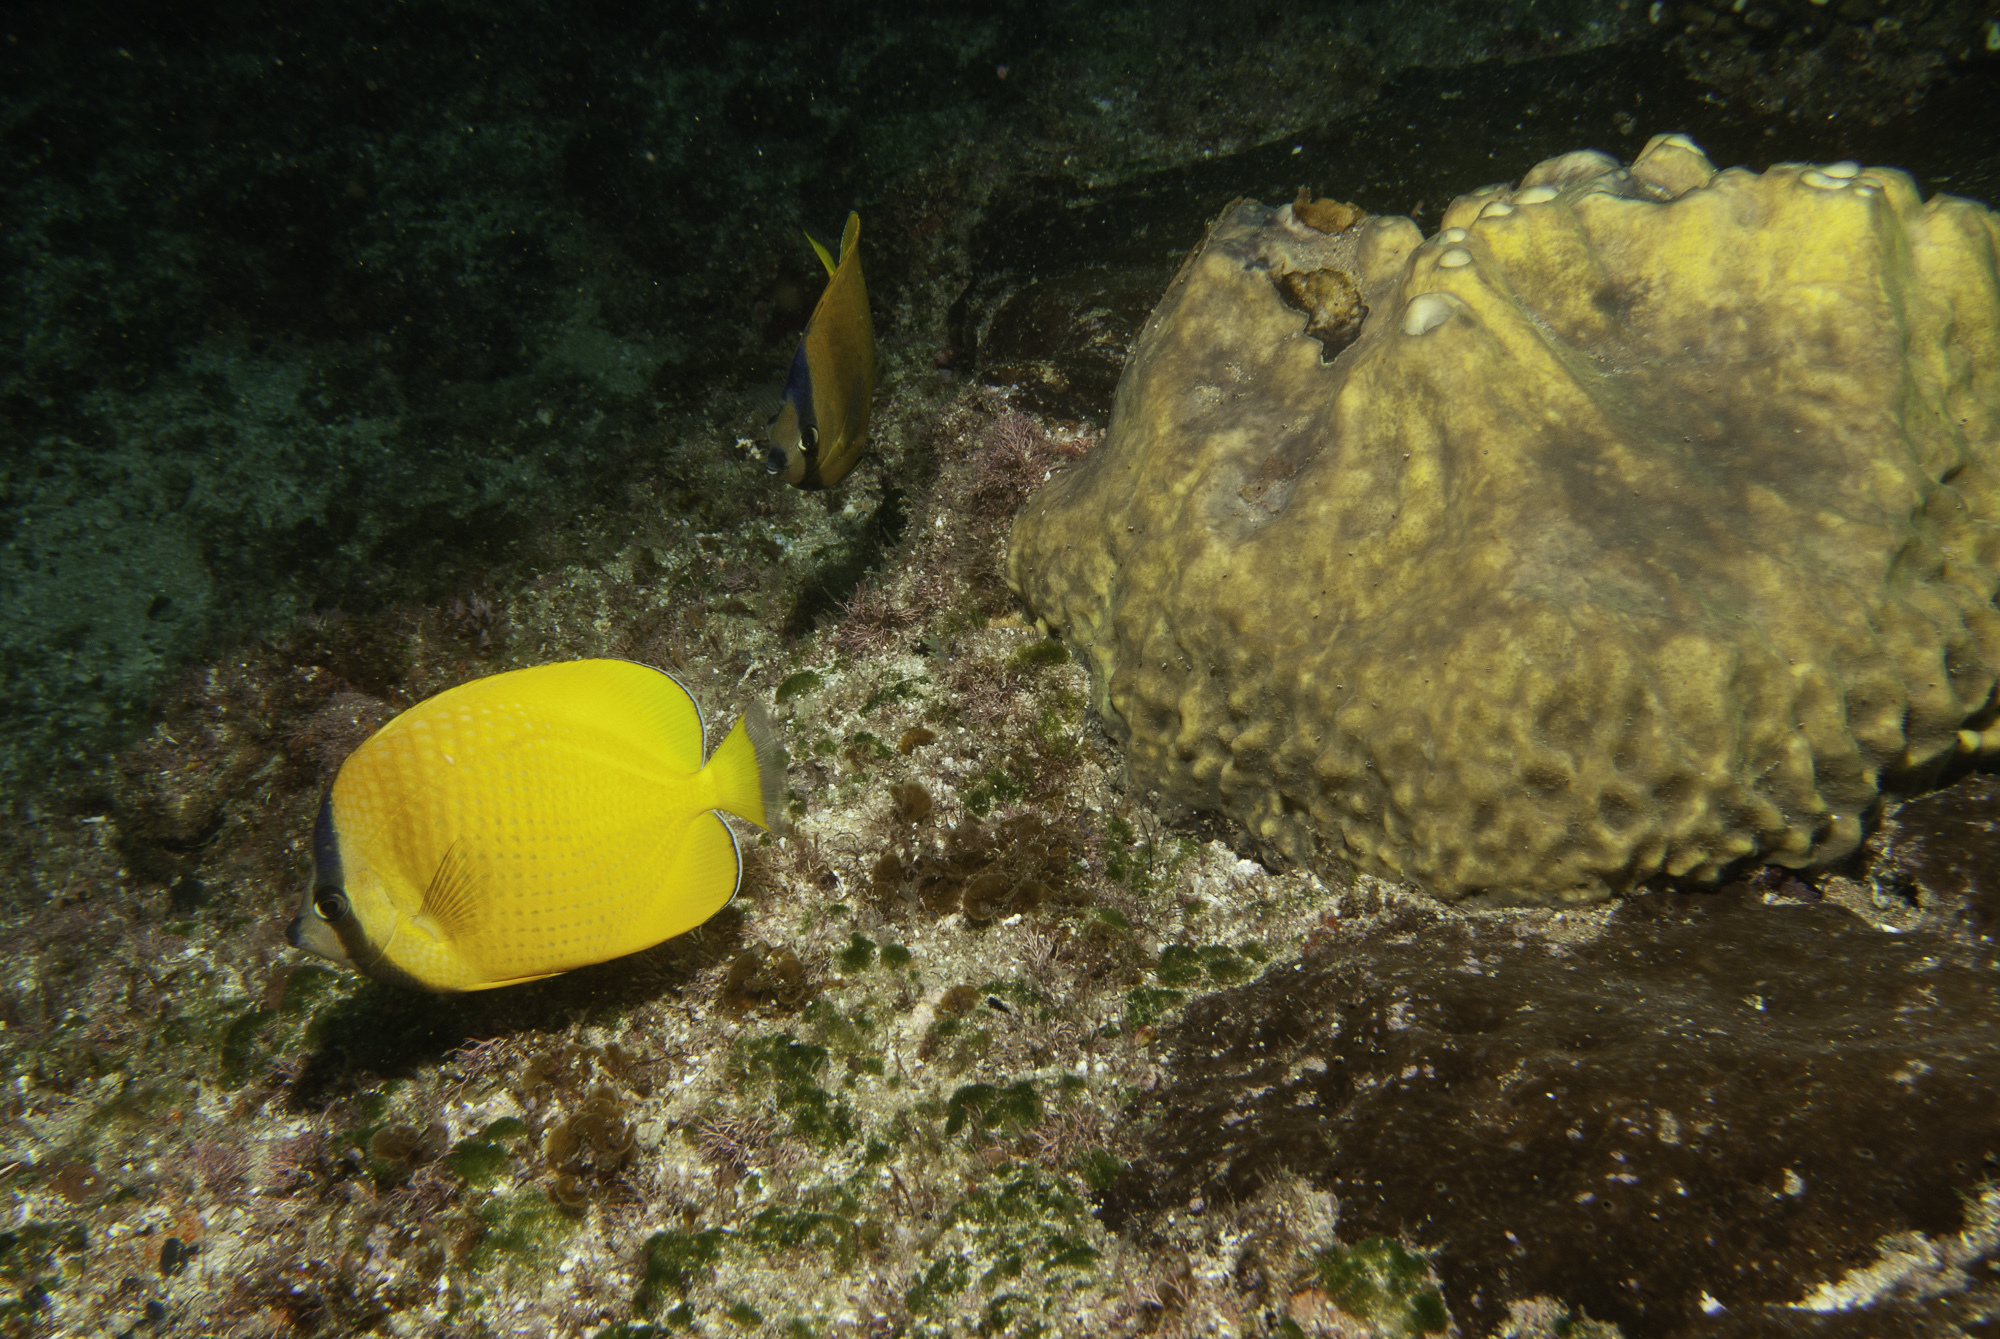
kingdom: Animalia
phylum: Chordata
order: Perciformes
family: Chaetodontidae
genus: Chaetodon
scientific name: Chaetodon kleinii
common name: Klein's butterflyfish
